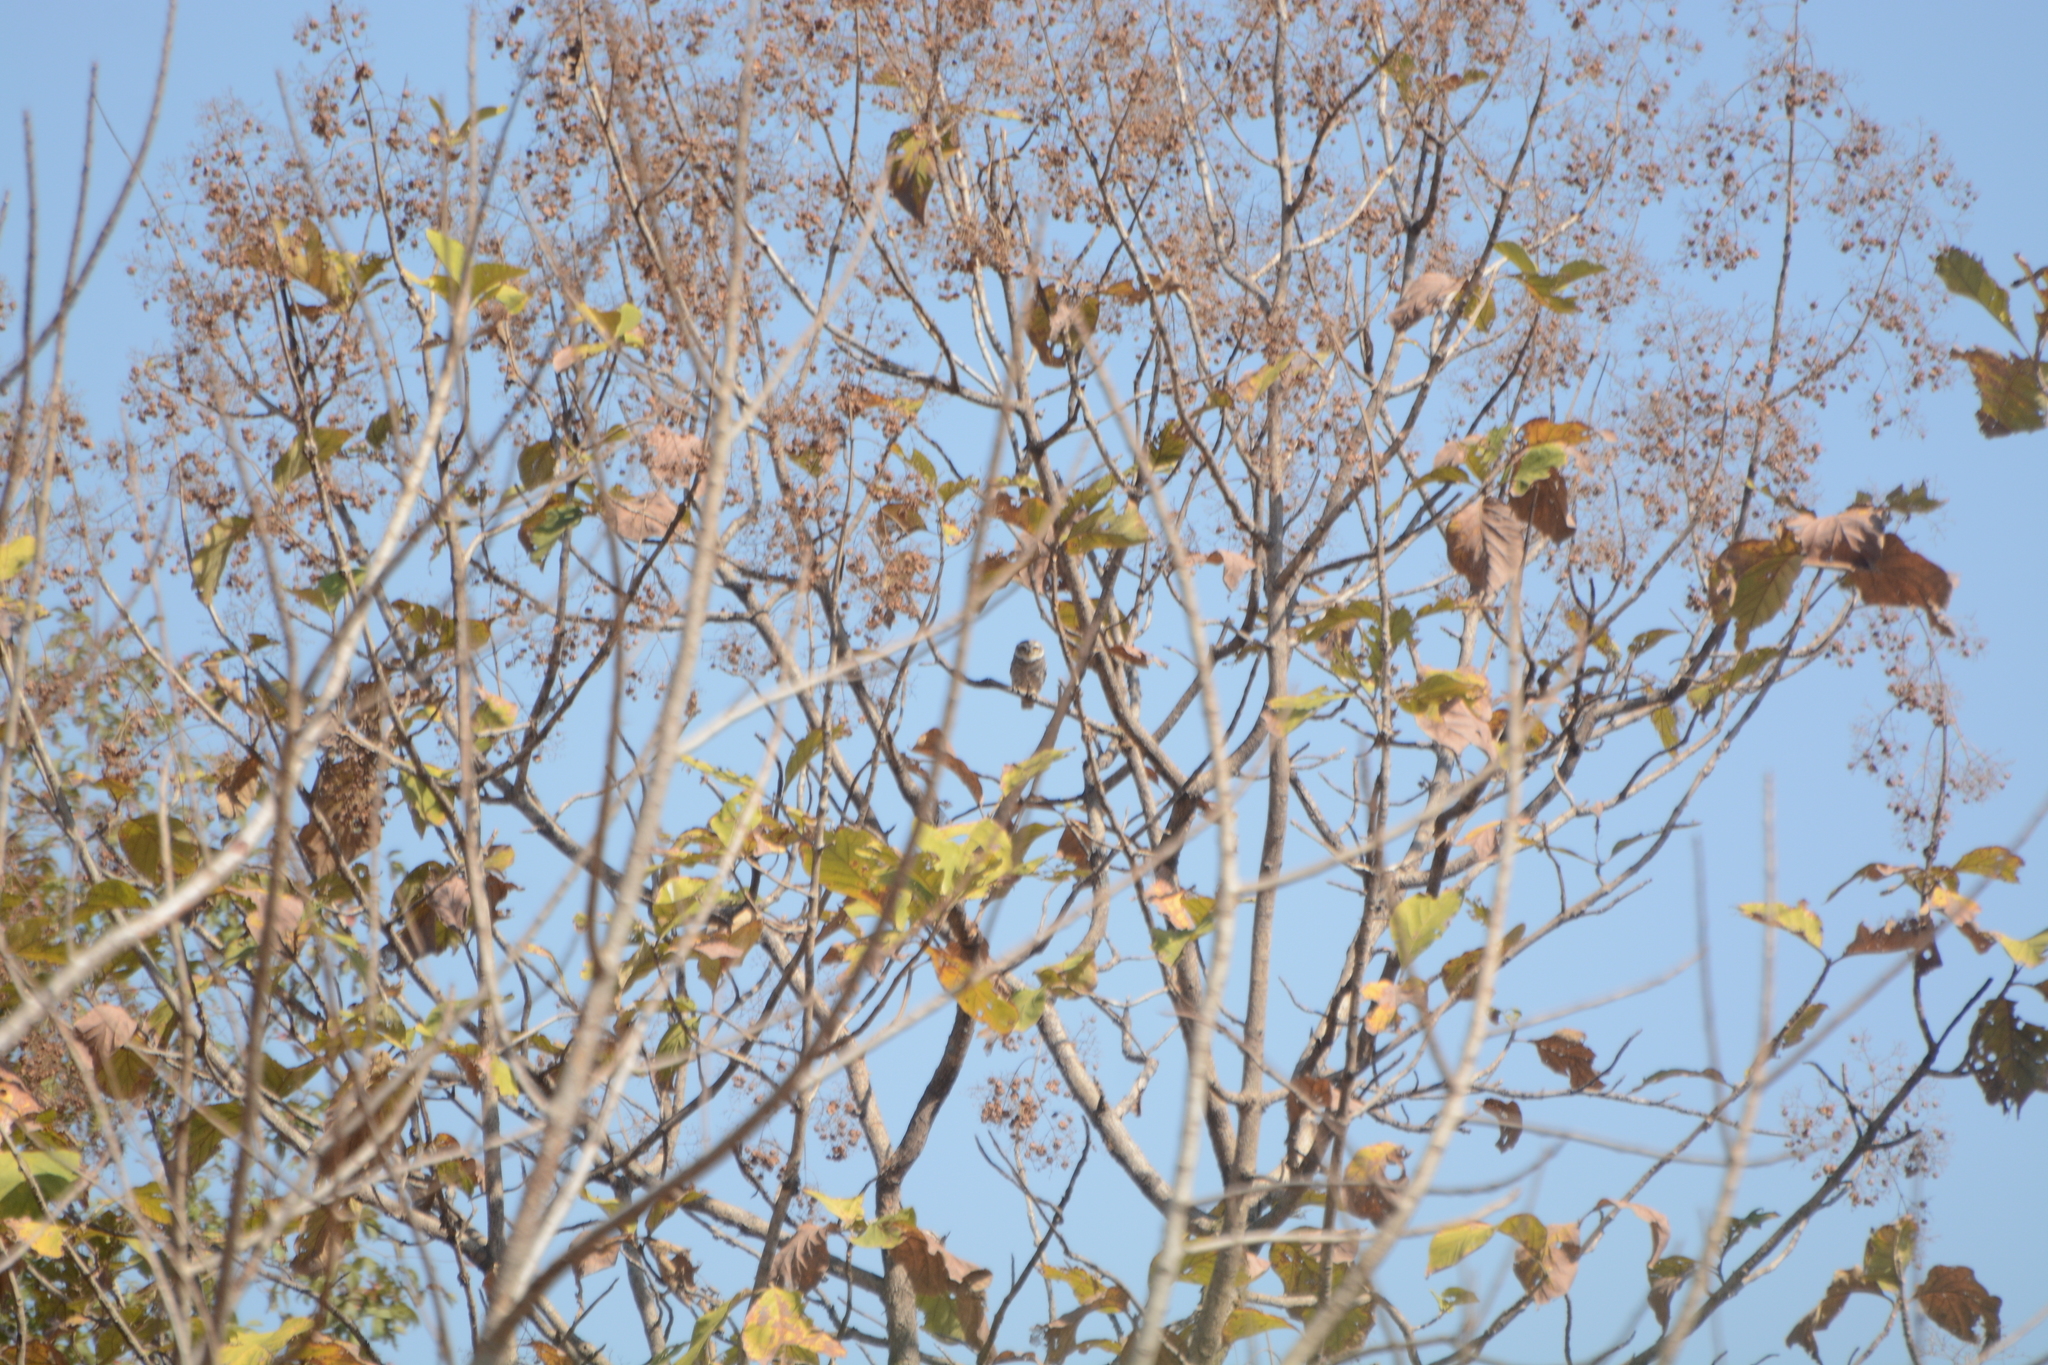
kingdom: Animalia
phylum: Chordata
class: Aves
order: Strigiformes
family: Strigidae
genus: Heteroglaux
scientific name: Heteroglaux blewitti
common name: Forest owlet
